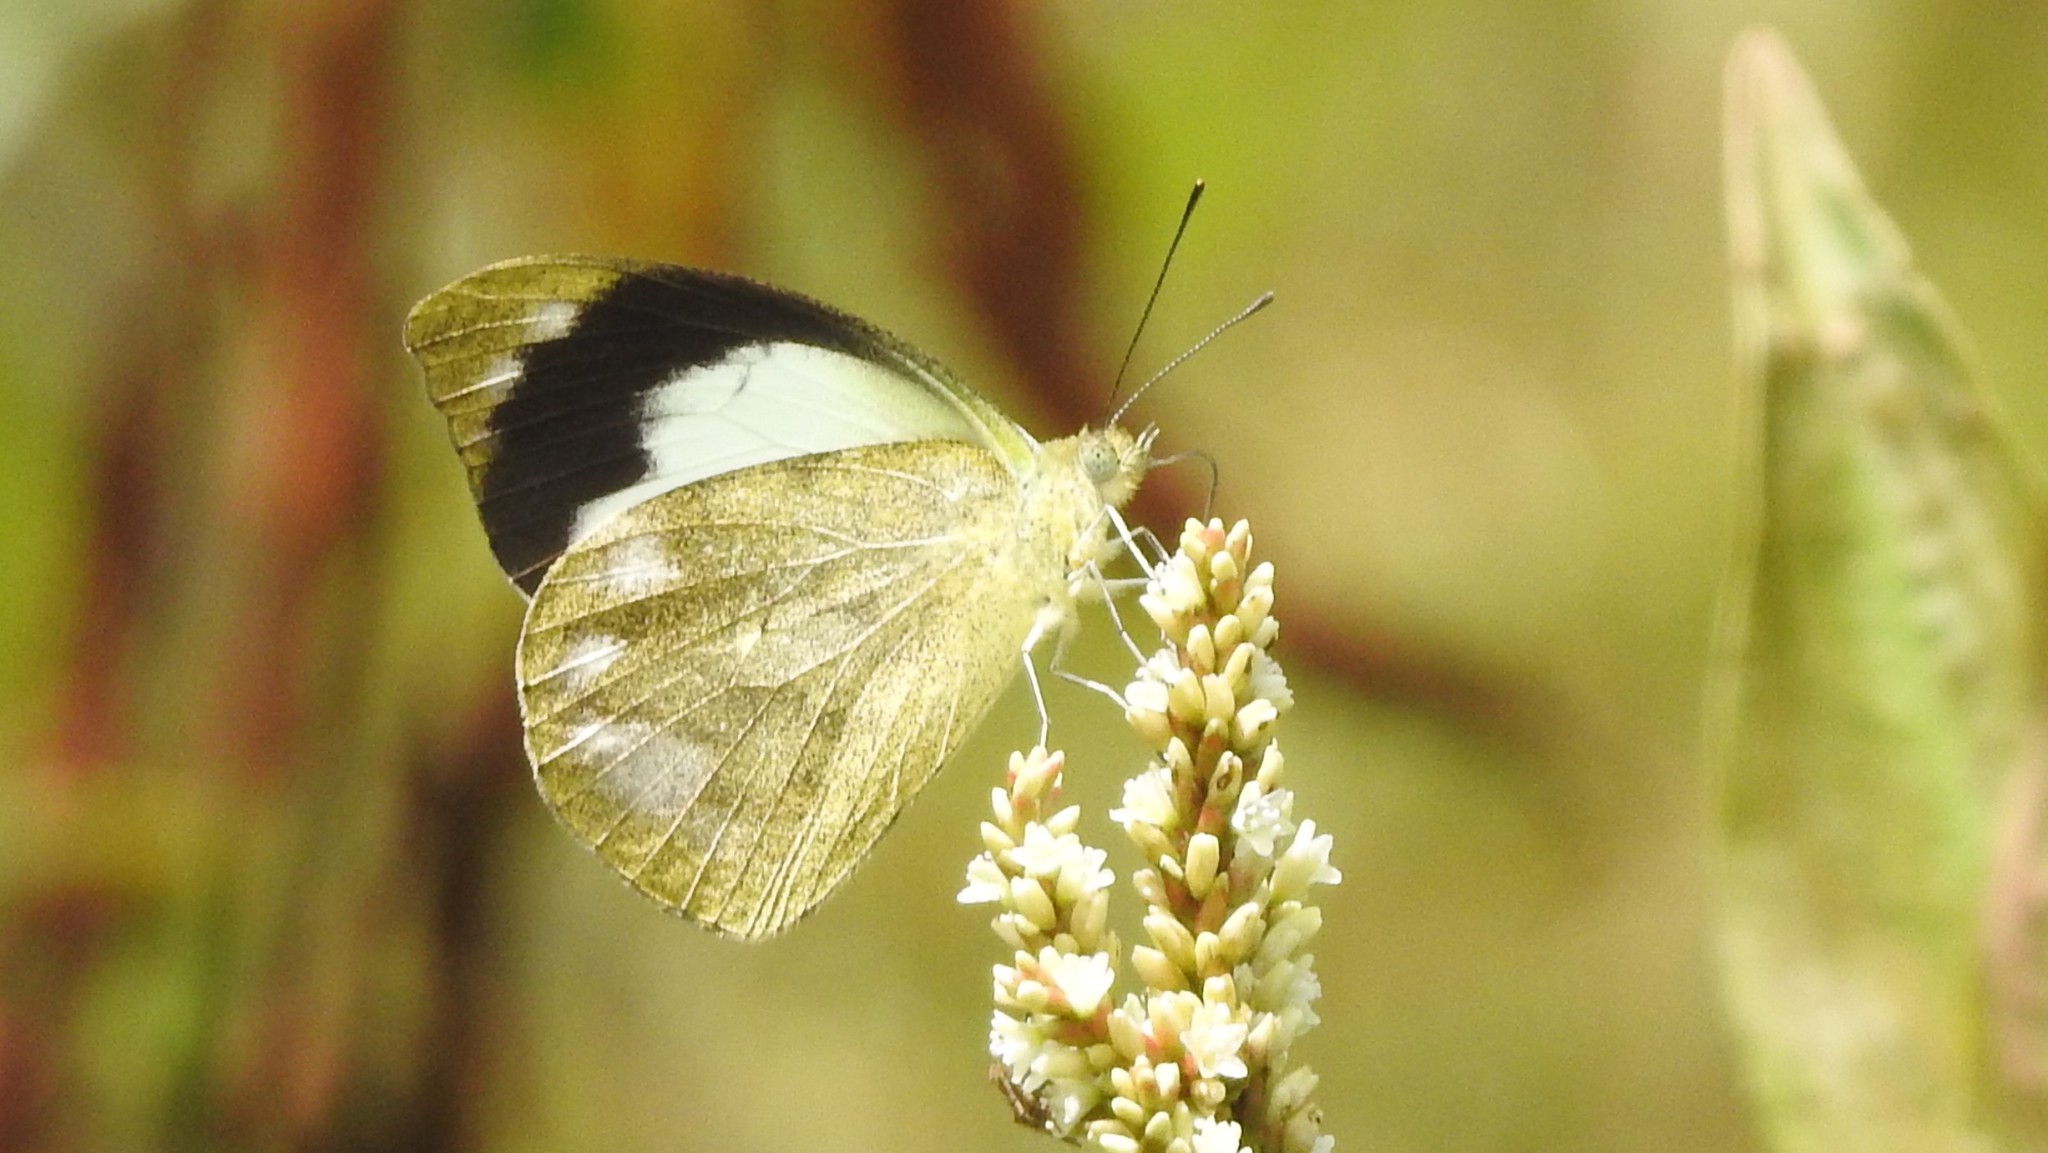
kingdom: Animalia
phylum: Arthropoda
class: Insecta
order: Lepidoptera
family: Pieridae
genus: Appias
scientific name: Appias indra
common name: Plain puffin
